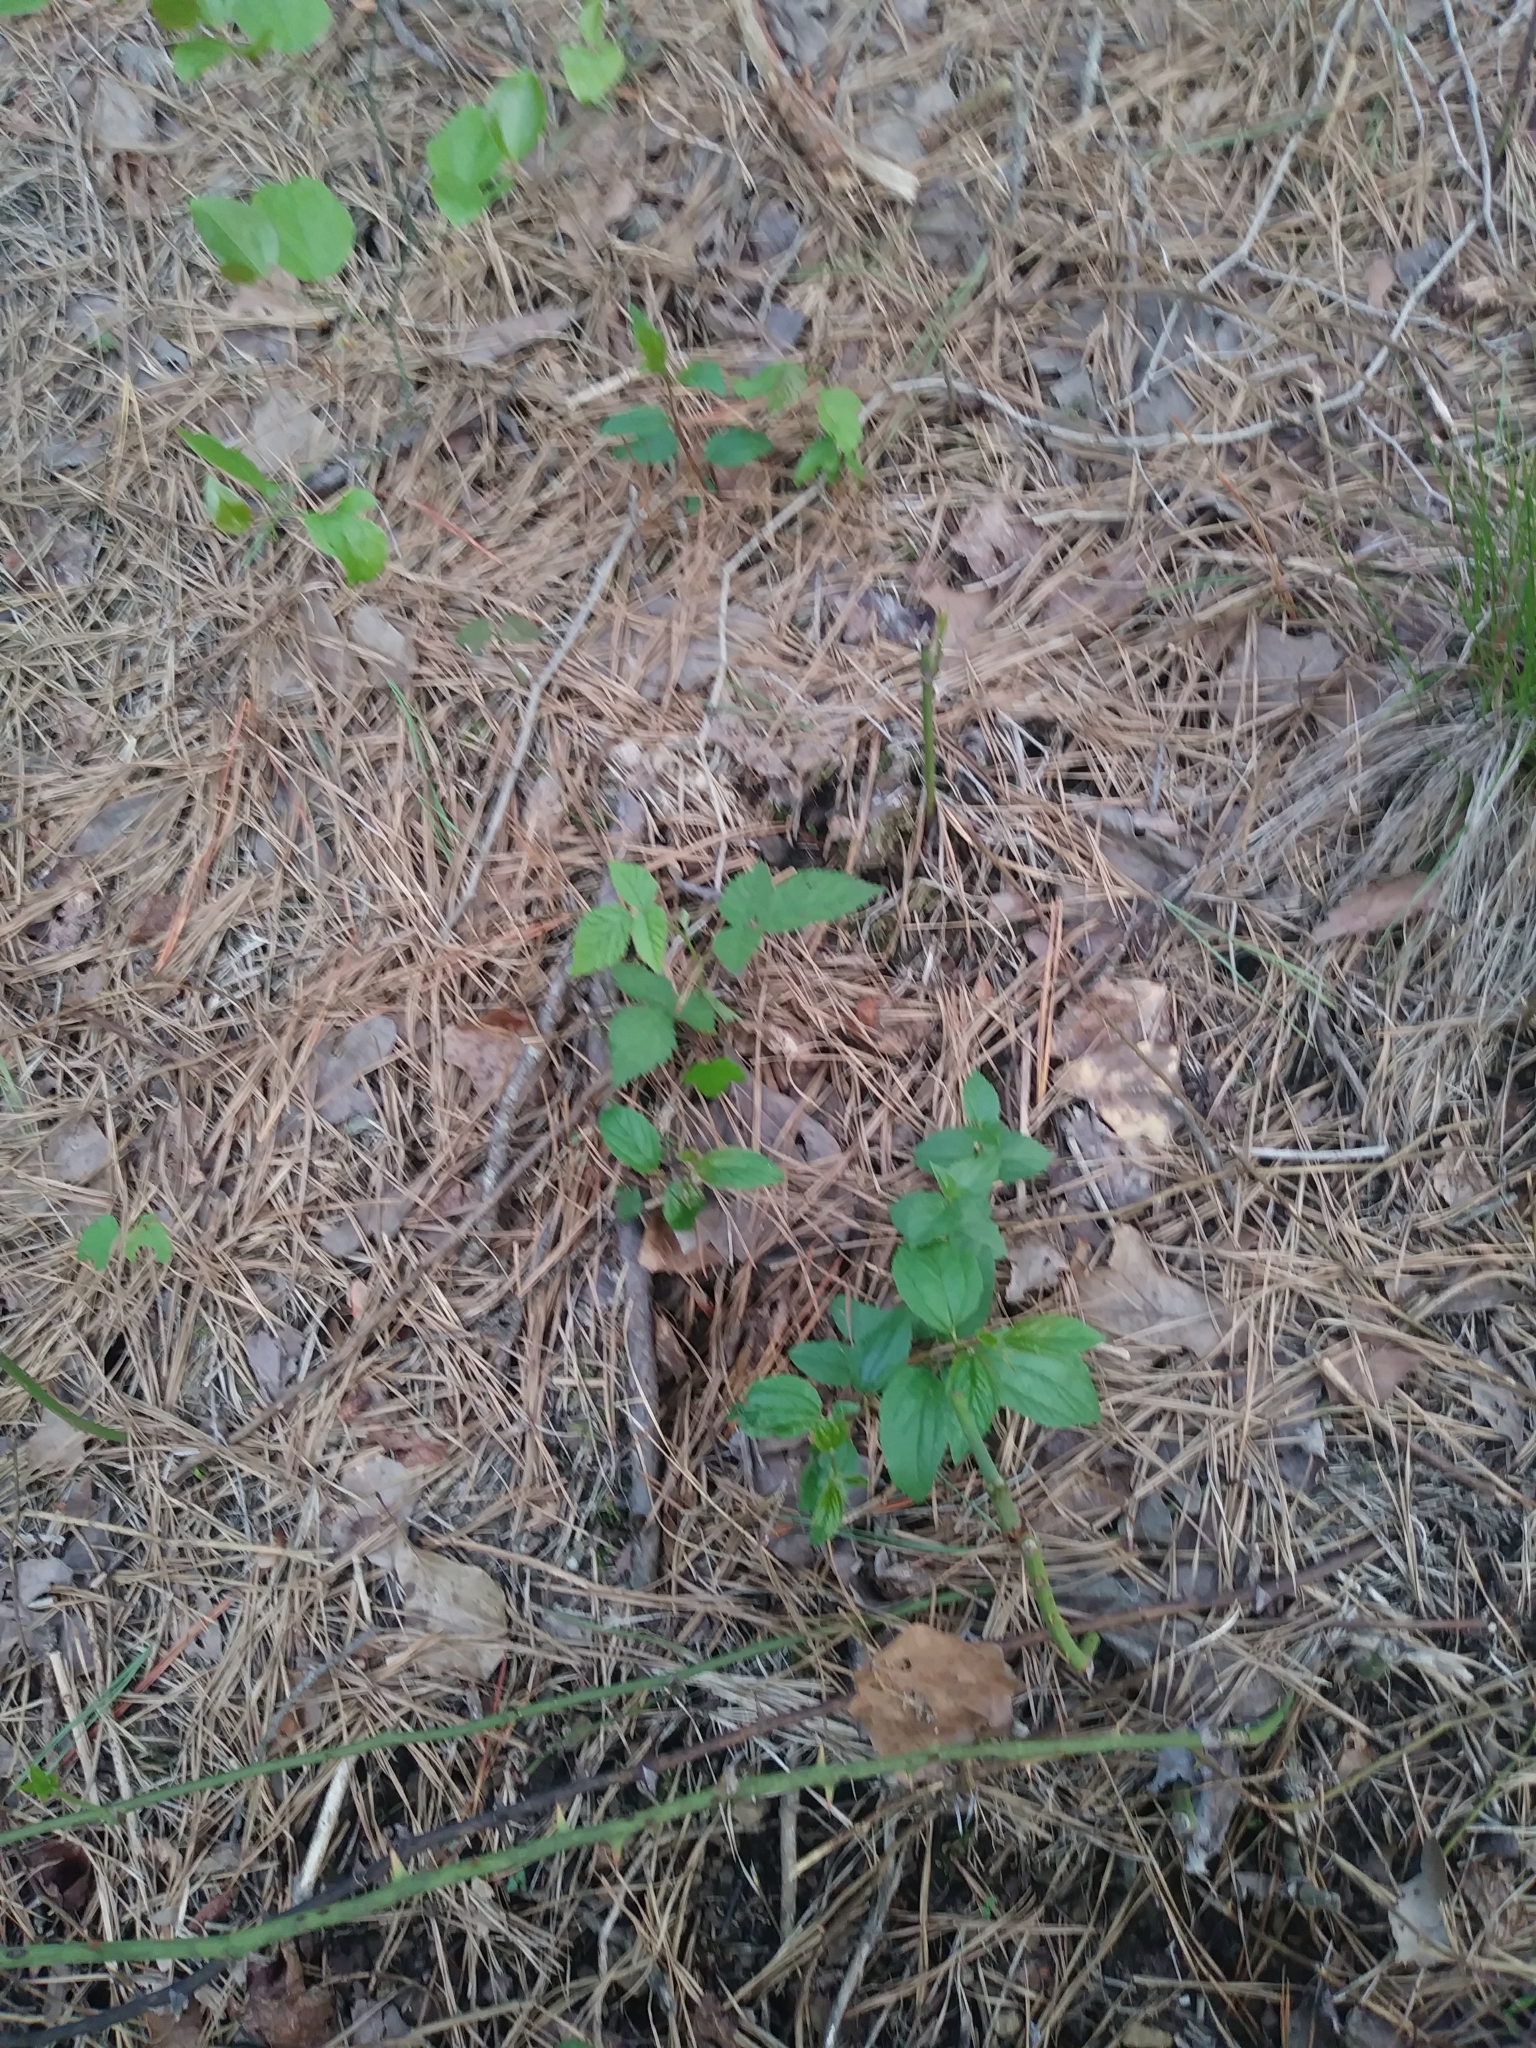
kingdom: Plantae
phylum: Tracheophyta
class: Magnoliopsida
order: Rosales
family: Rhamnaceae
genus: Ceanothus
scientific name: Ceanothus americanus
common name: Redroot
